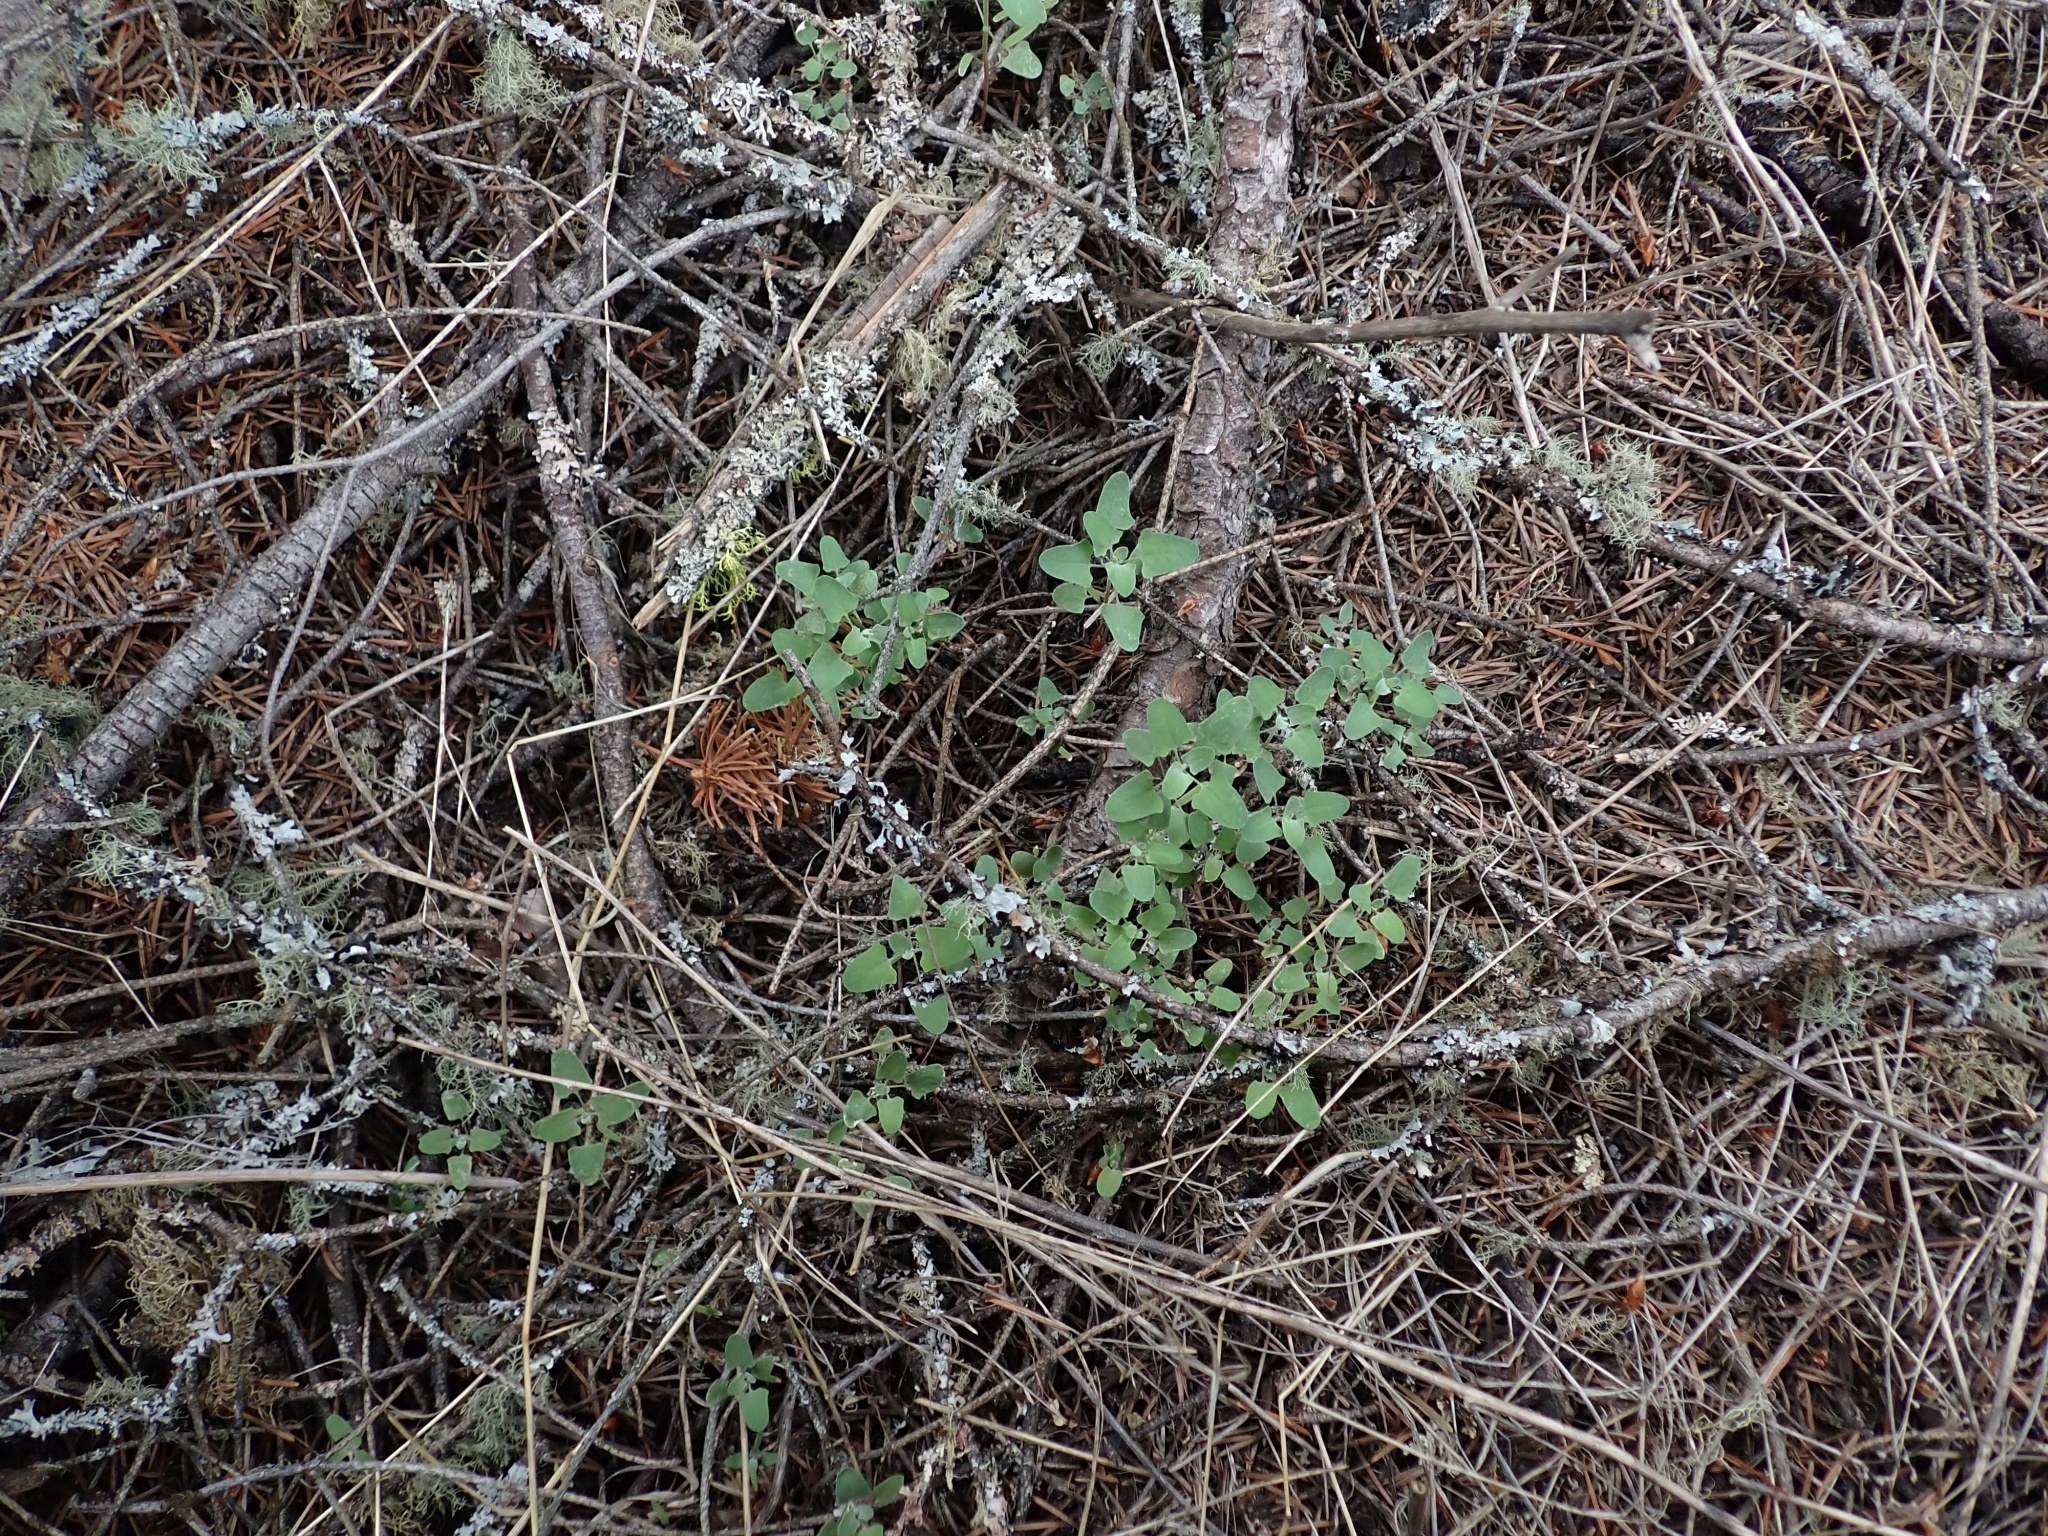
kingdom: Plantae
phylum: Tracheophyta
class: Magnoliopsida
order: Caryophyllales
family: Amaranthaceae
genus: Chenopodium
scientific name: Chenopodium album
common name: Fat-hen
